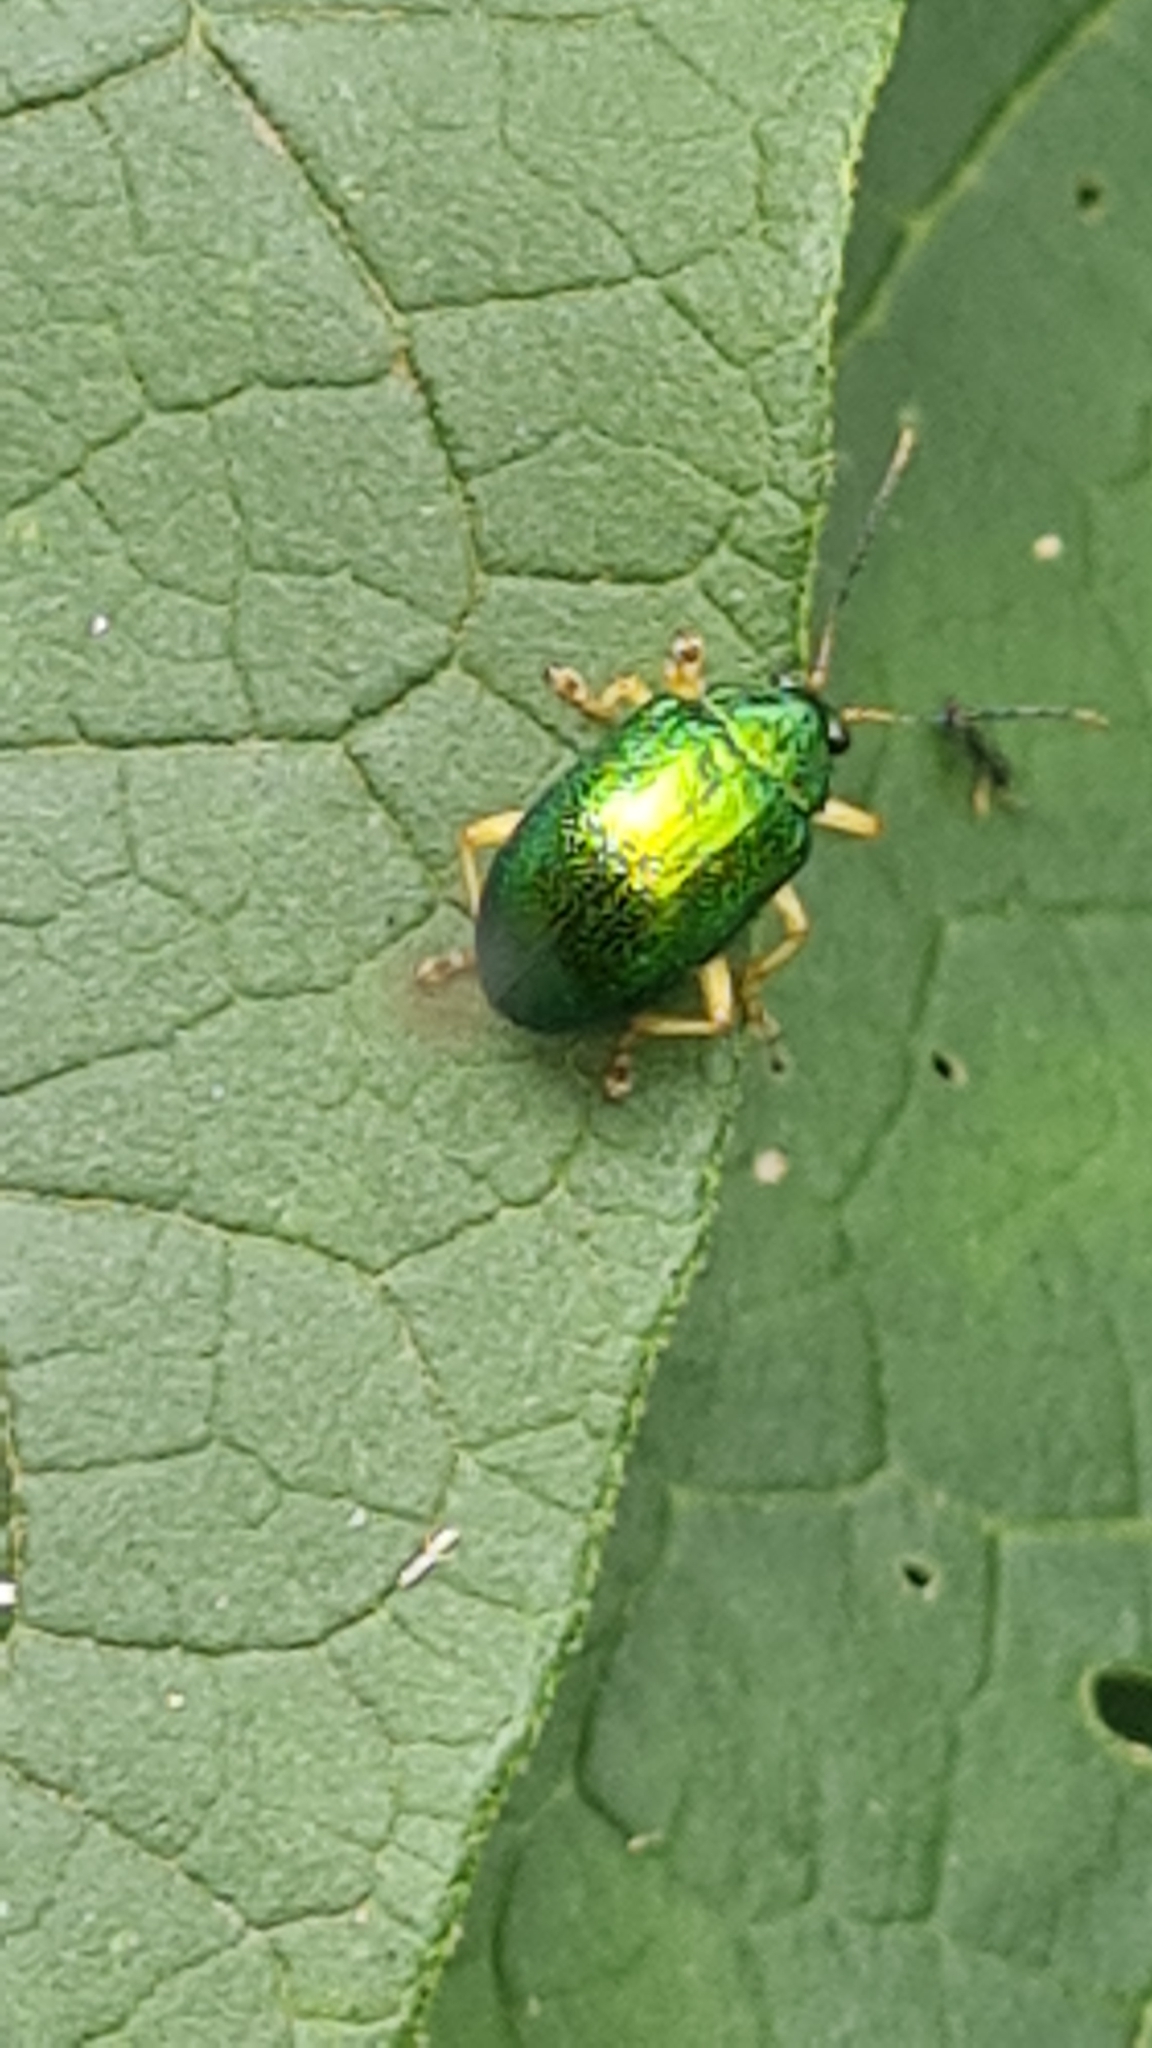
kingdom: Animalia
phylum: Arthropoda
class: Insecta
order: Coleoptera
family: Chrysomelidae
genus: Colaspis
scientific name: Colaspis
